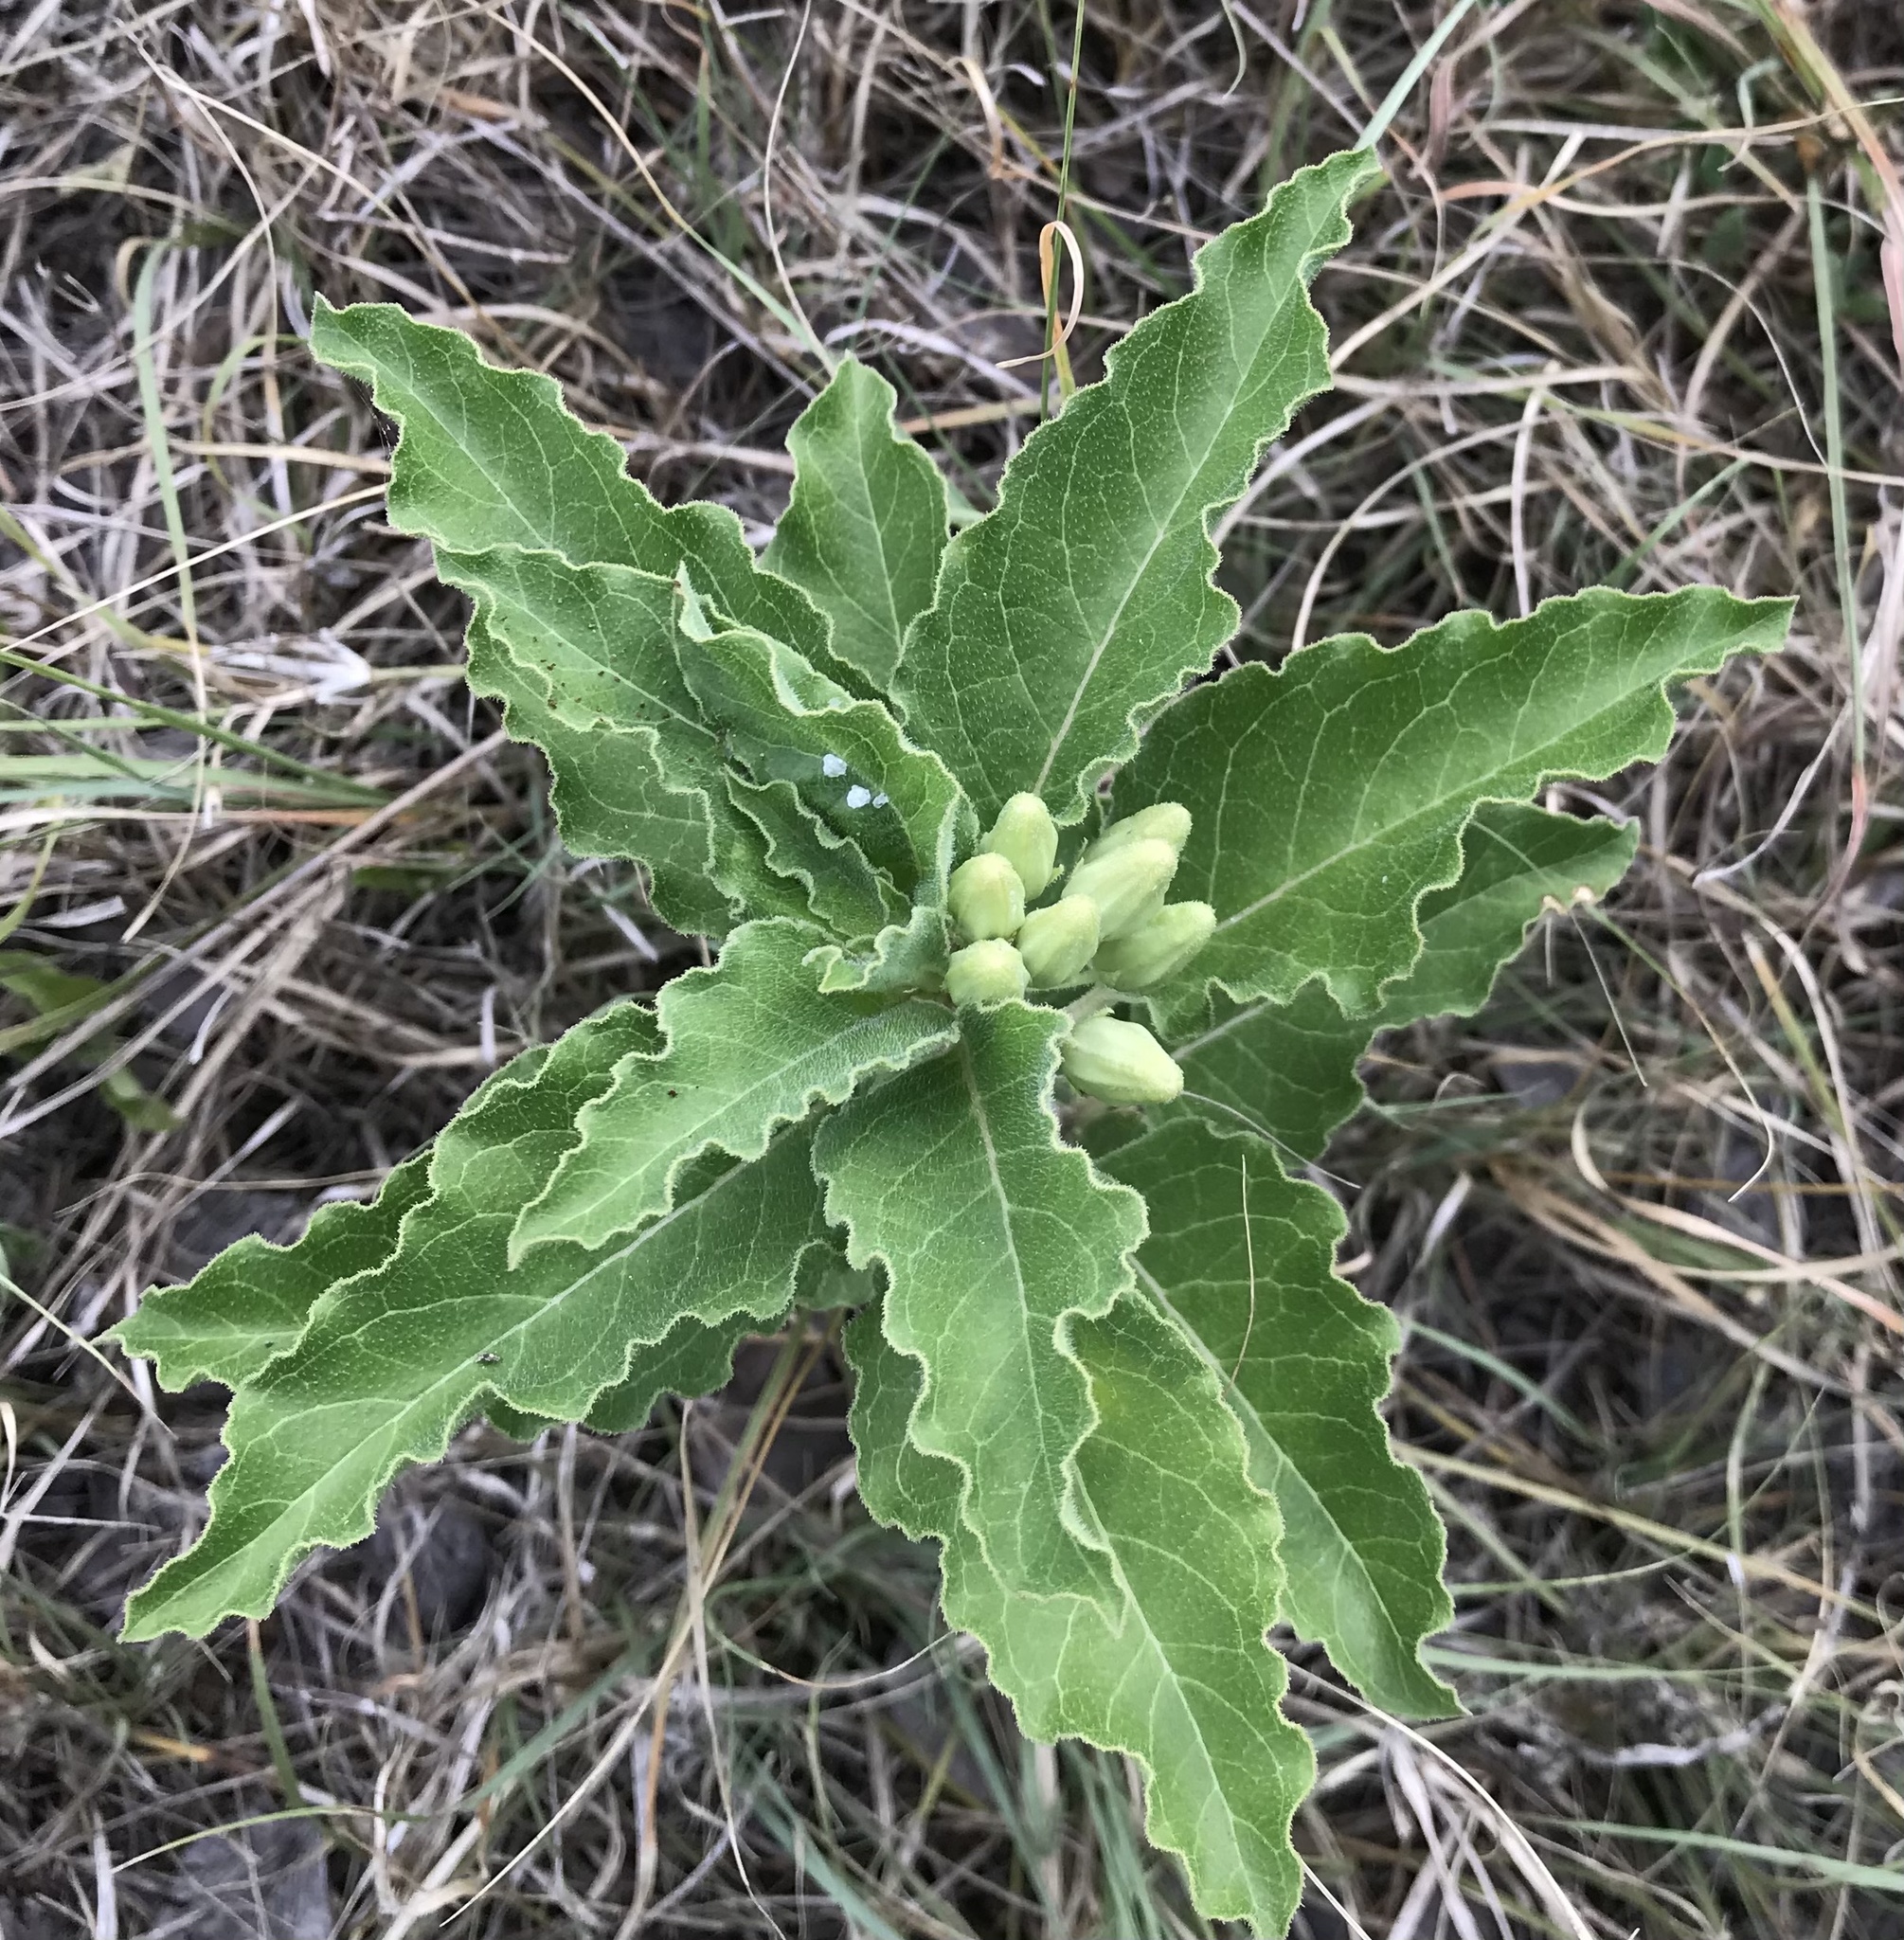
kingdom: Plantae
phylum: Tracheophyta
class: Magnoliopsida
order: Gentianales
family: Apocynaceae
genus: Asclepias
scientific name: Asclepias oenotheroides
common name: Zizotes milkweed
